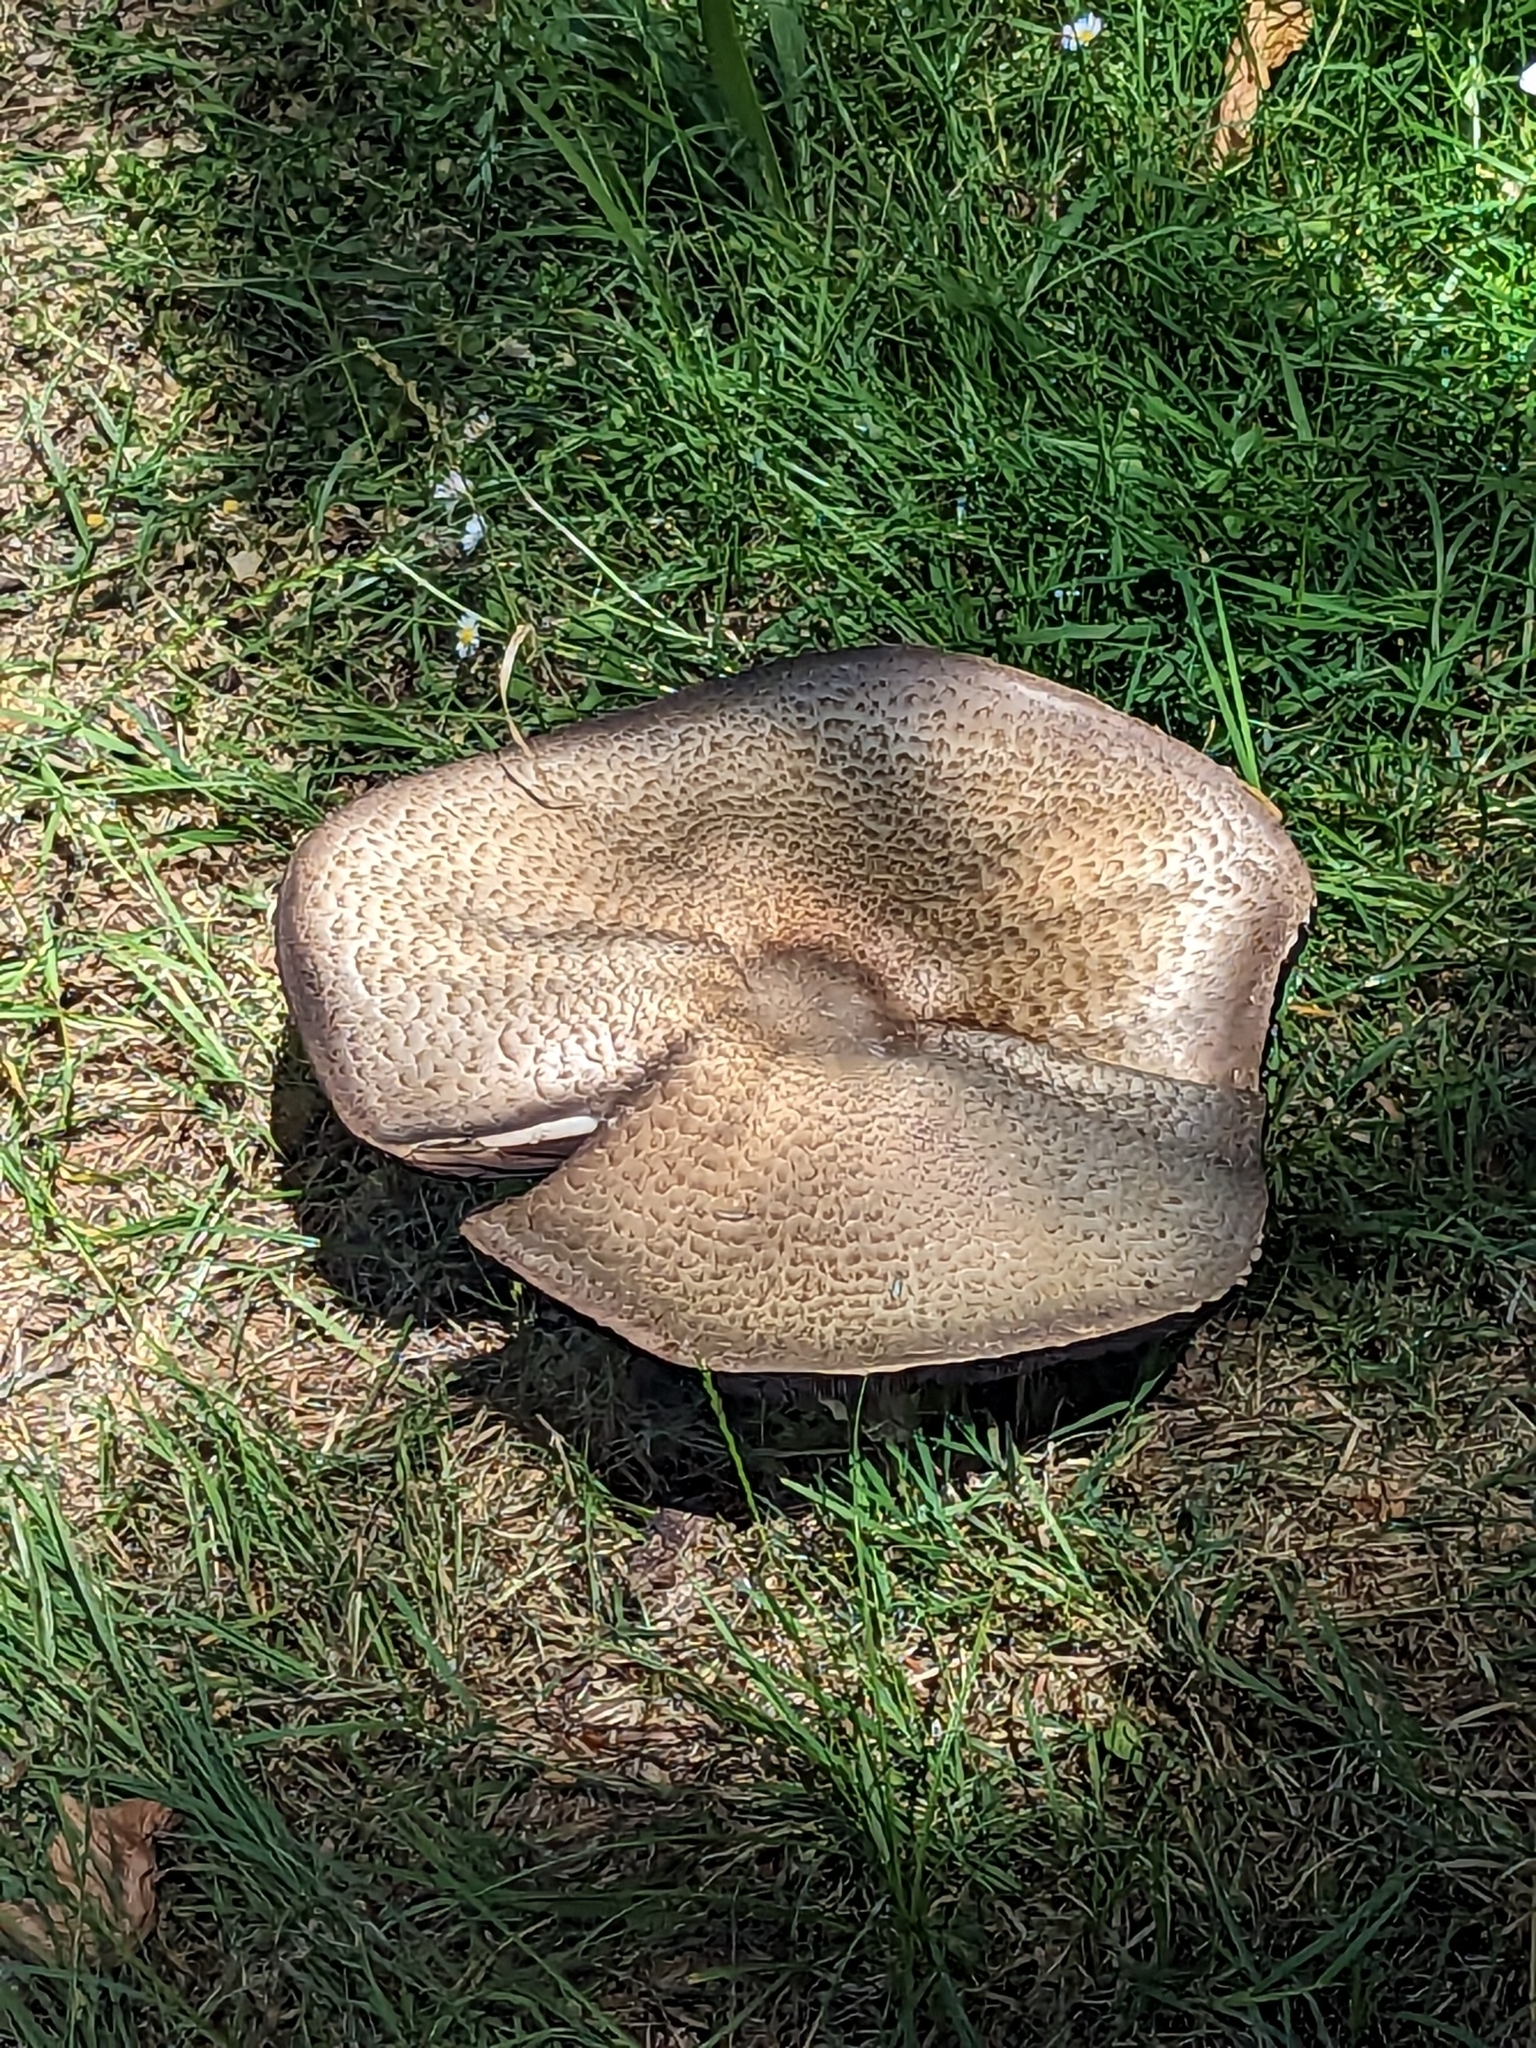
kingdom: Fungi
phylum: Basidiomycota
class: Agaricomycetes
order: Agaricales
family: Agaricaceae
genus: Agaricus
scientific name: Agaricus augustus
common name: Prince
